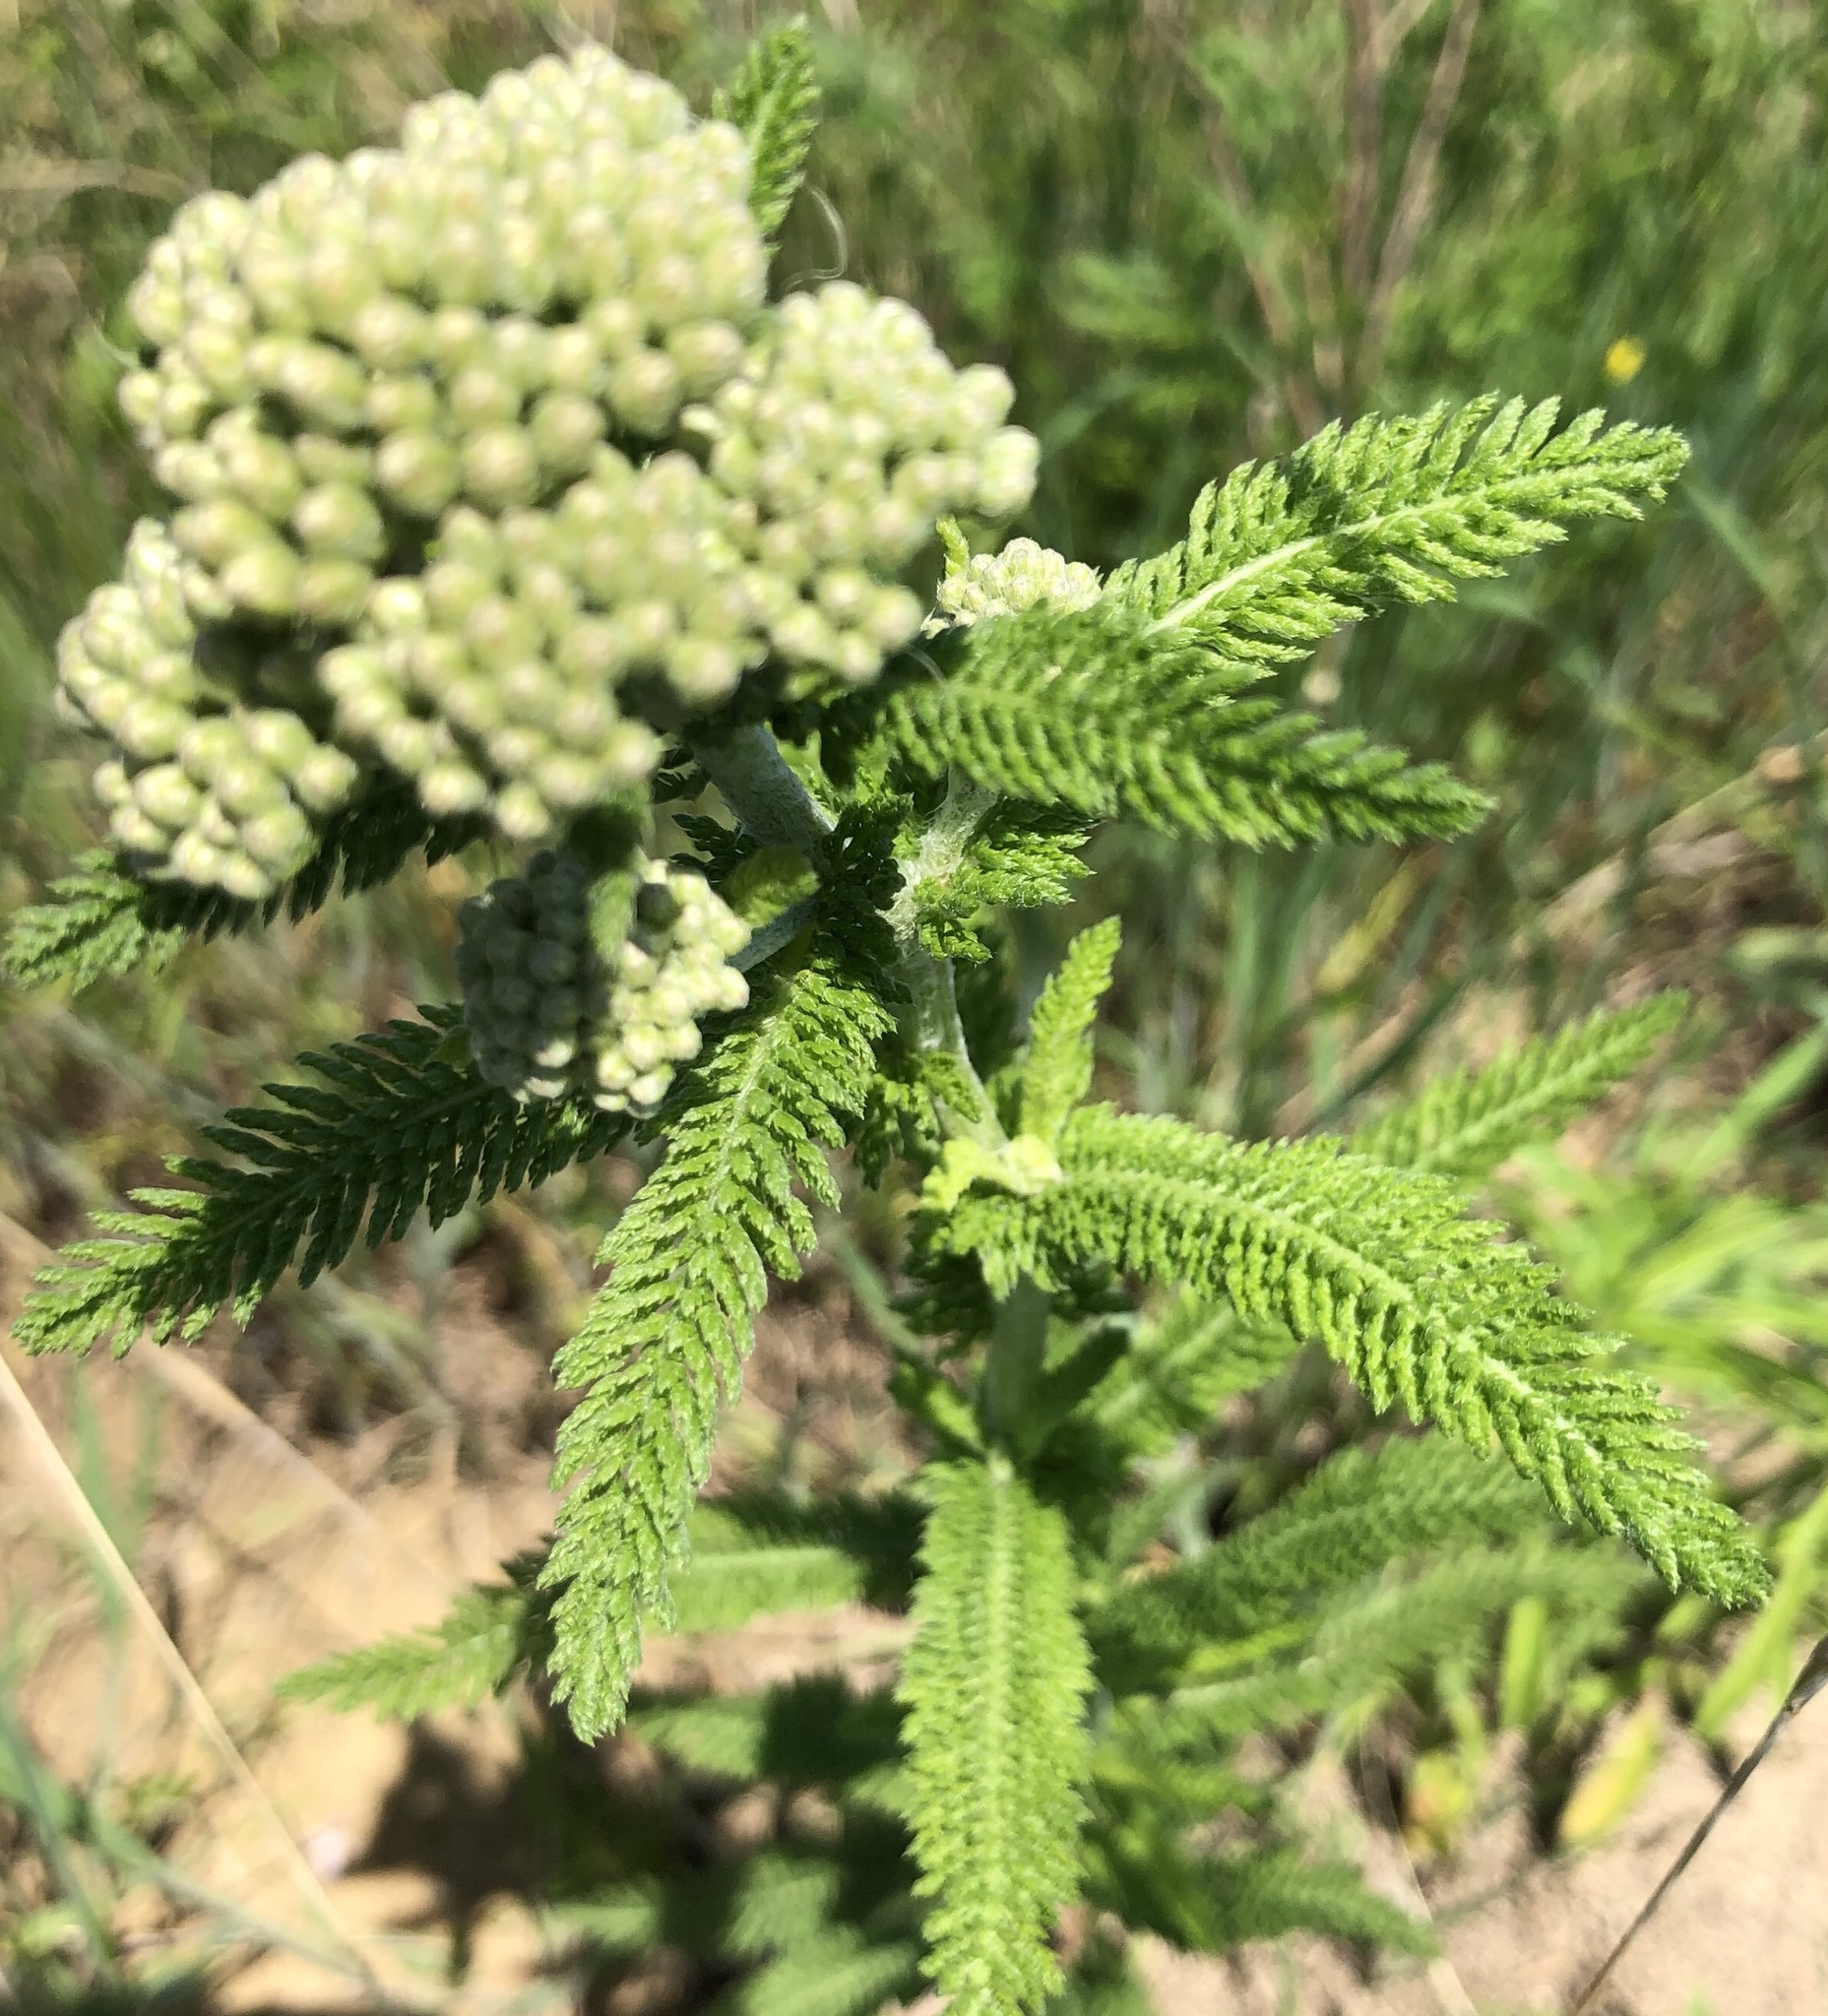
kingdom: Plantae
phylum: Tracheophyta
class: Magnoliopsida
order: Asterales
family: Asteraceae
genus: Achillea
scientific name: Achillea millefolium
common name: Yarrow
